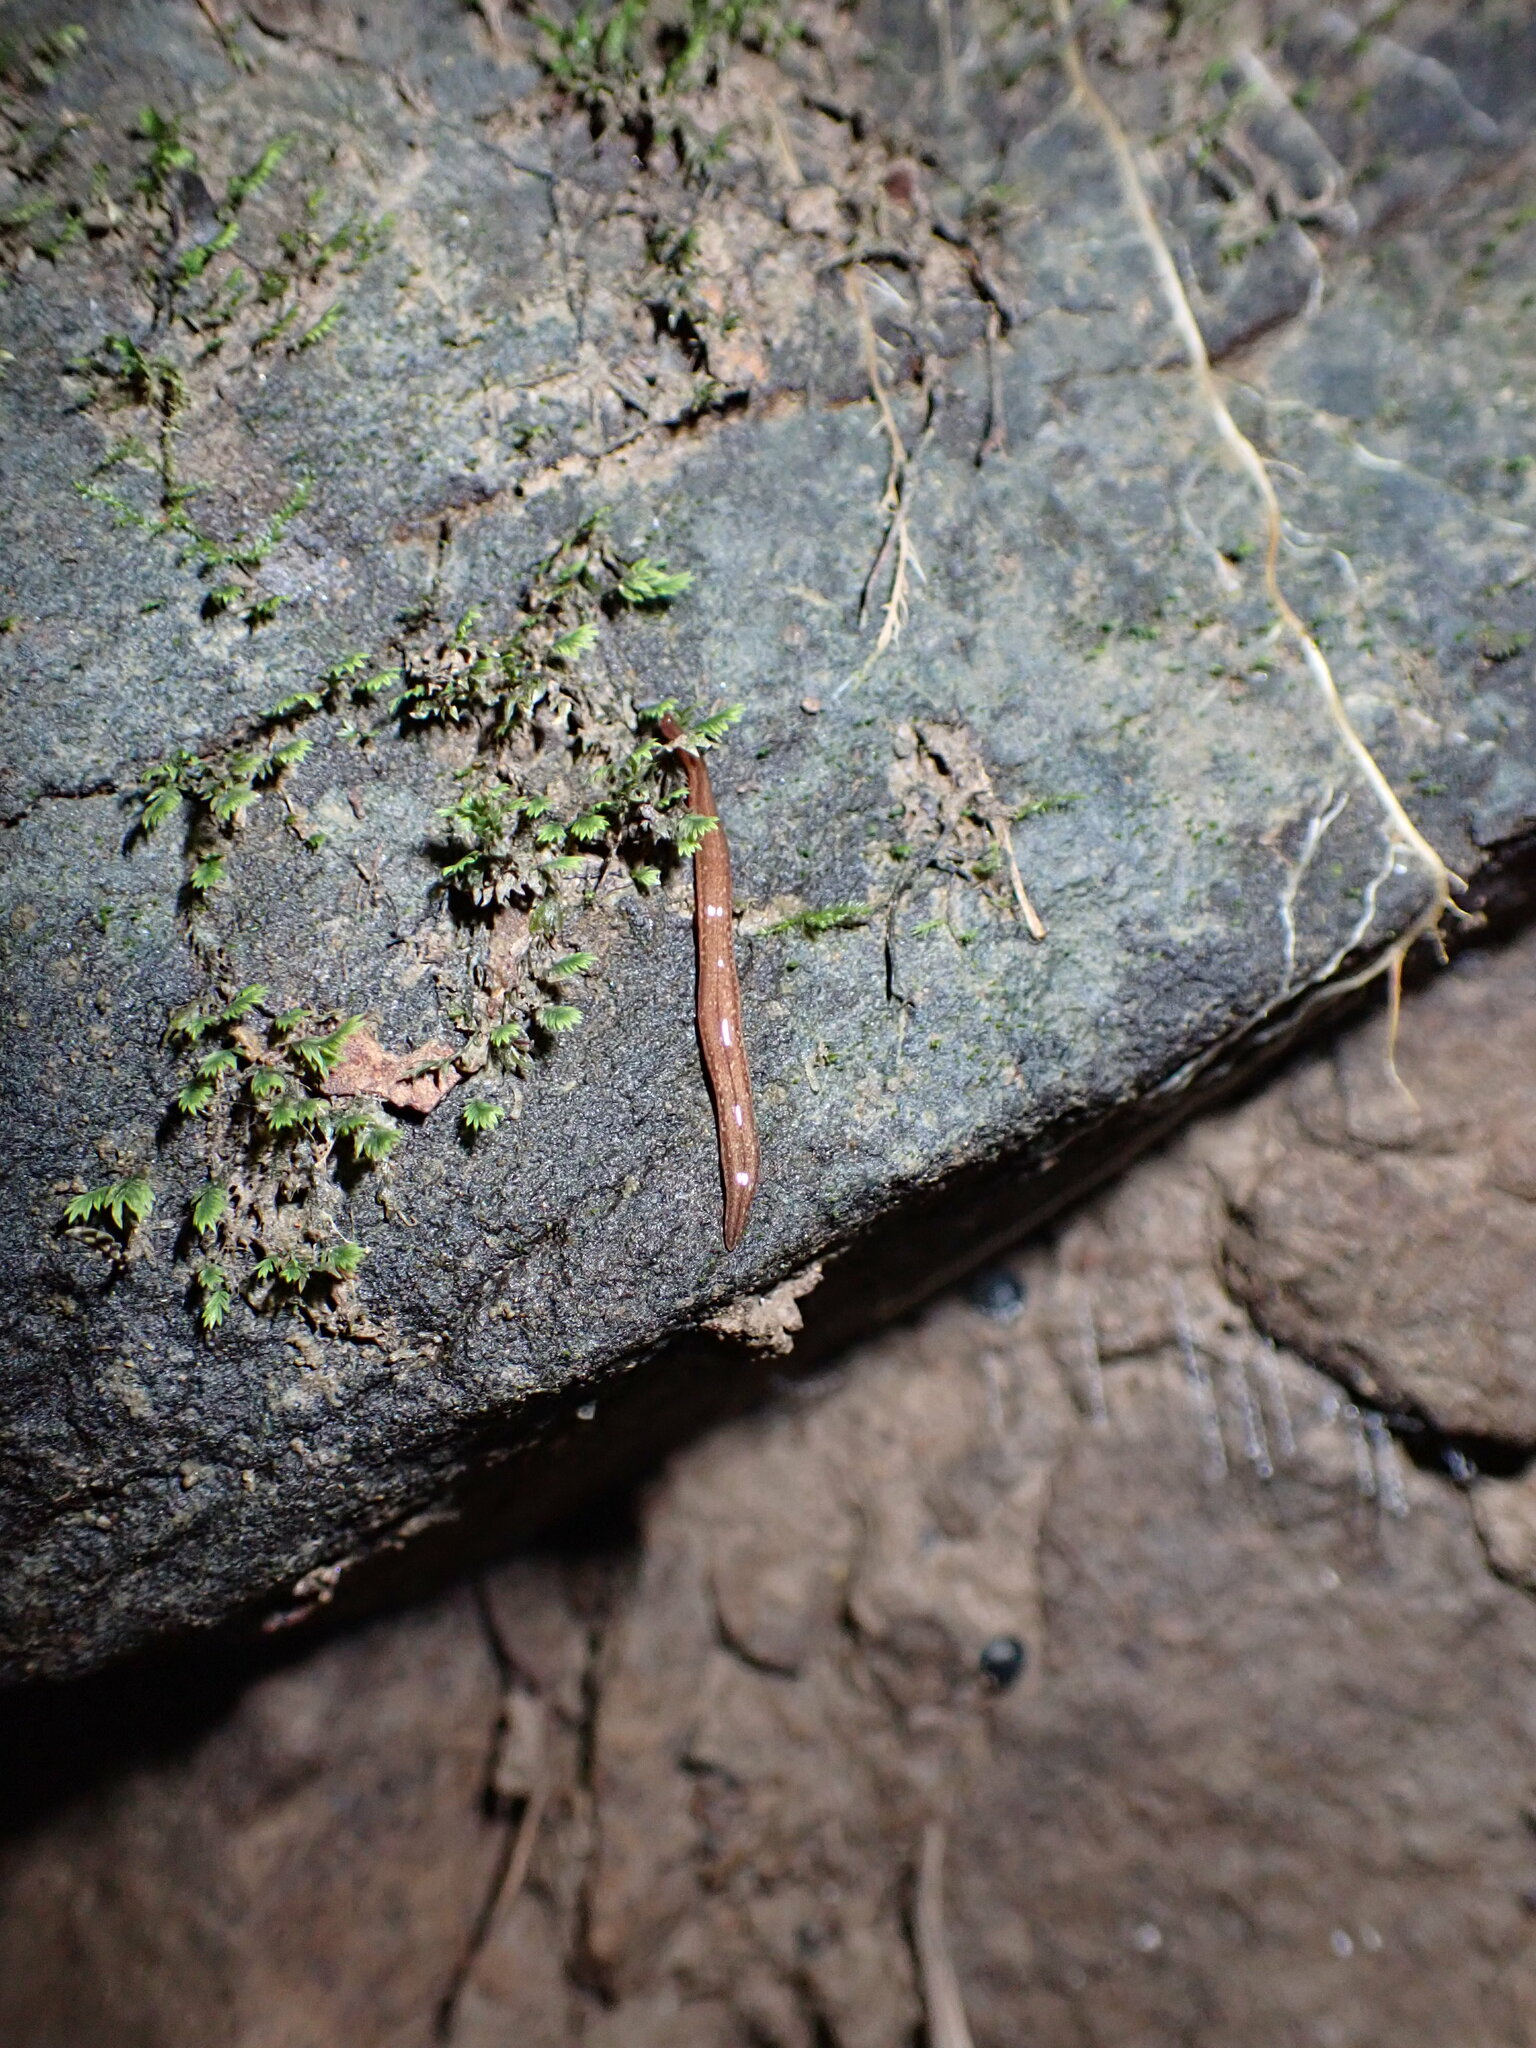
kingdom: Animalia
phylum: Platyhelminthes
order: Tricladida
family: Geoplanidae
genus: Reomkago
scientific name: Reomkago quadrangulatus
